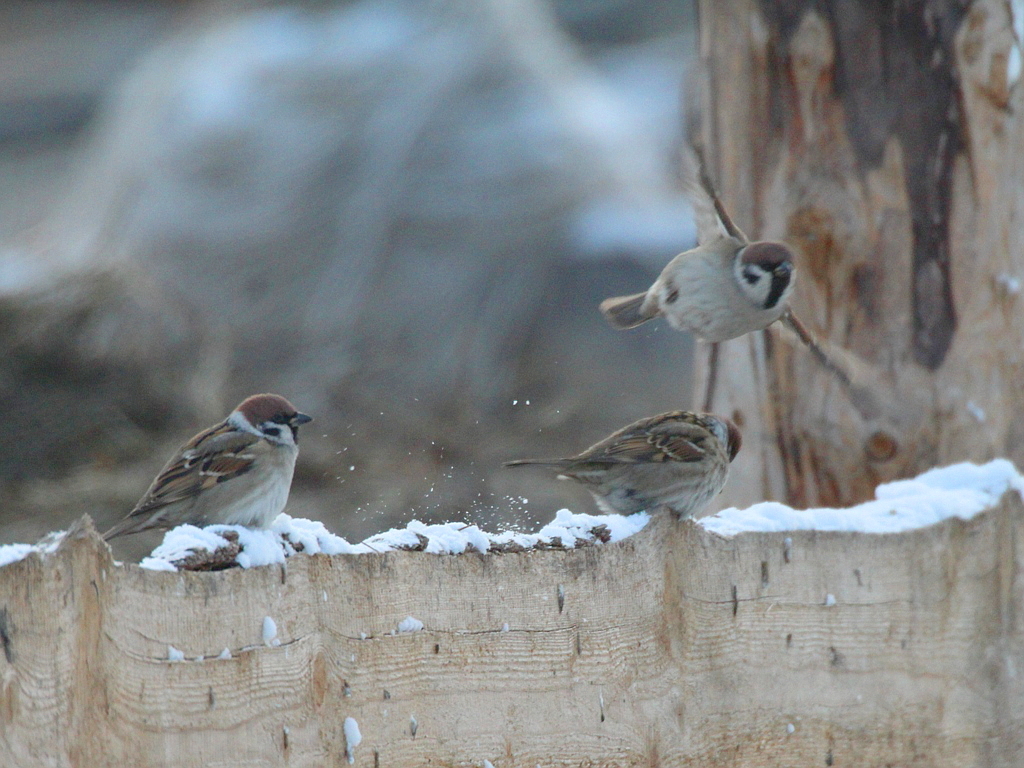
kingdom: Animalia
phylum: Chordata
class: Aves
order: Passeriformes
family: Passeridae
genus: Passer
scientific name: Passer montanus
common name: Eurasian tree sparrow
